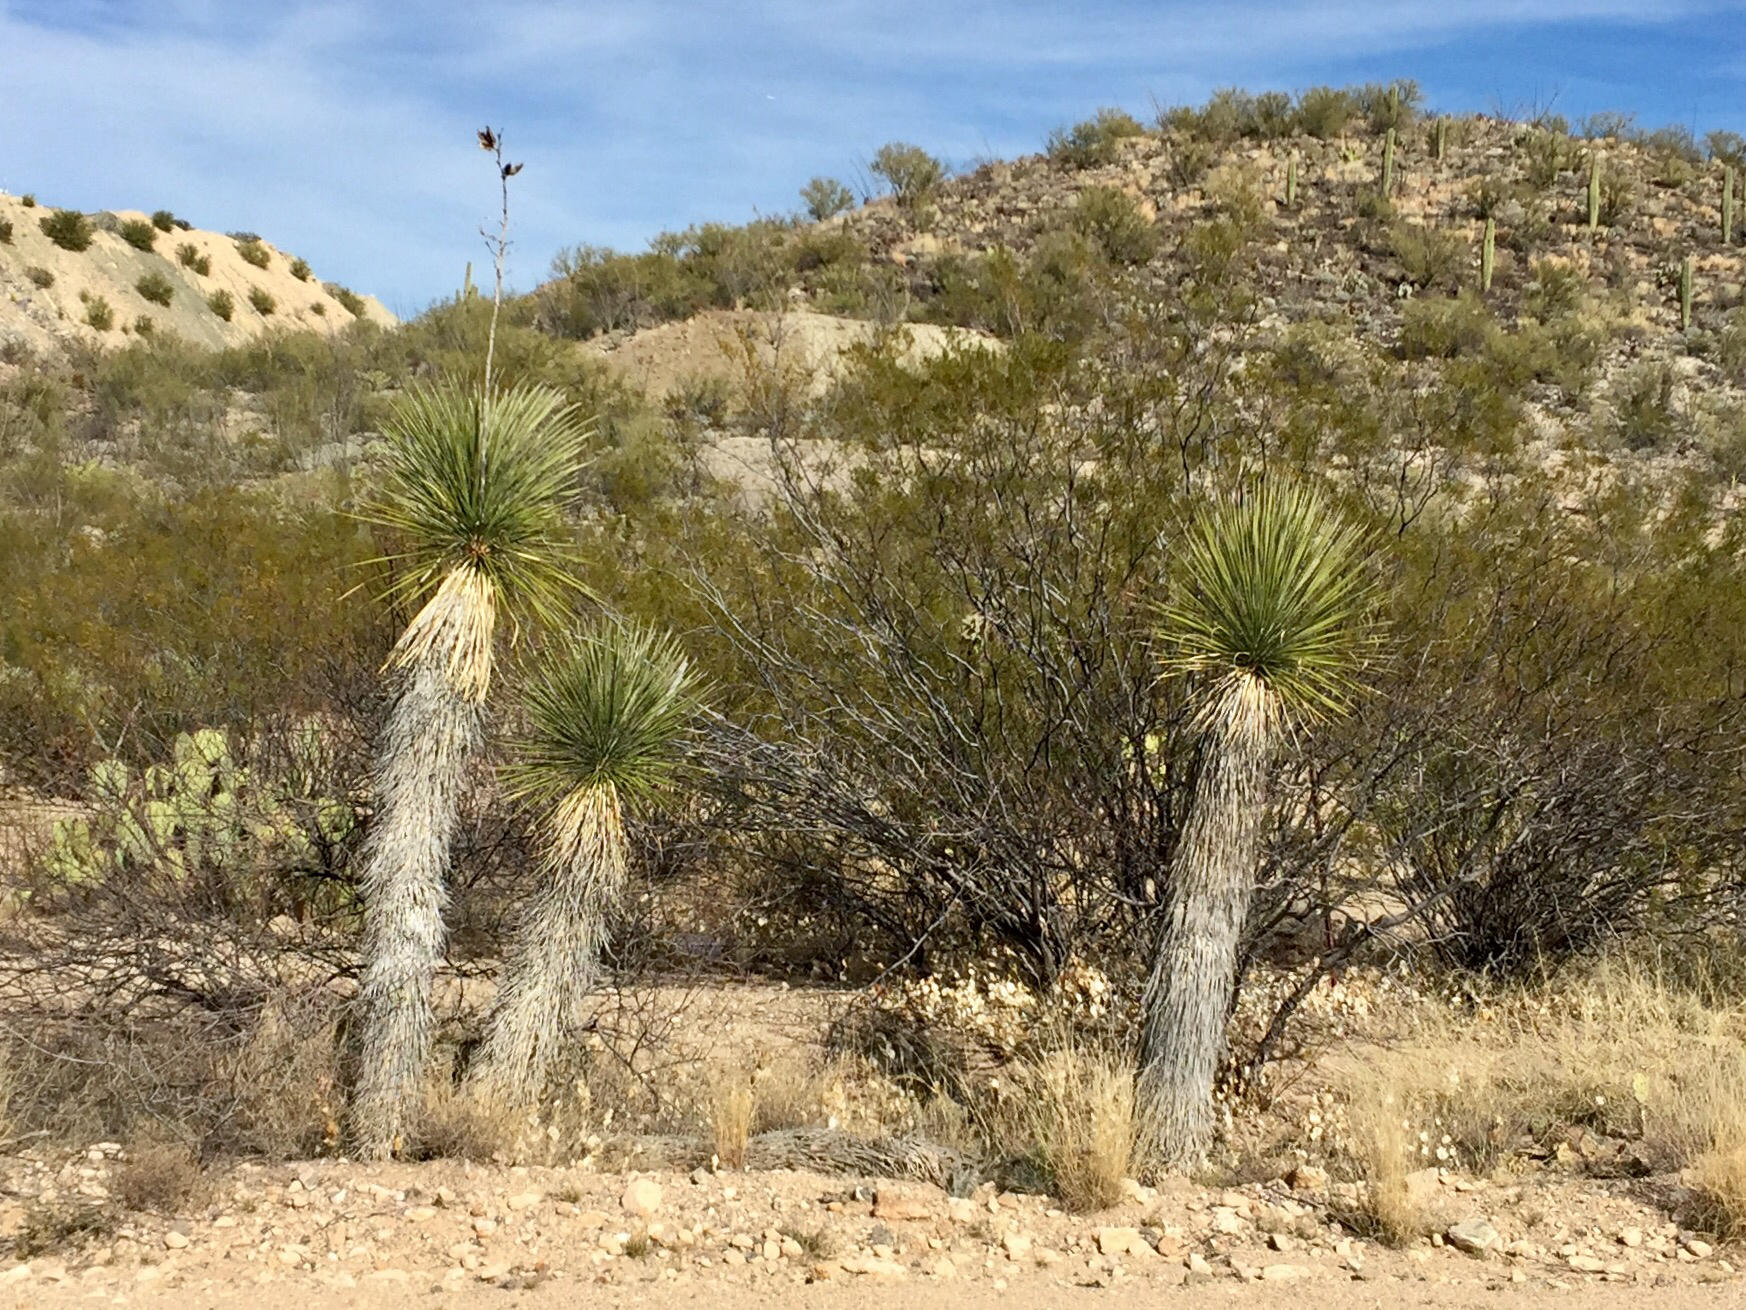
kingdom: Plantae
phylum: Tracheophyta
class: Liliopsida
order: Asparagales
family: Asparagaceae
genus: Yucca
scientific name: Yucca elata
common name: Palmella
